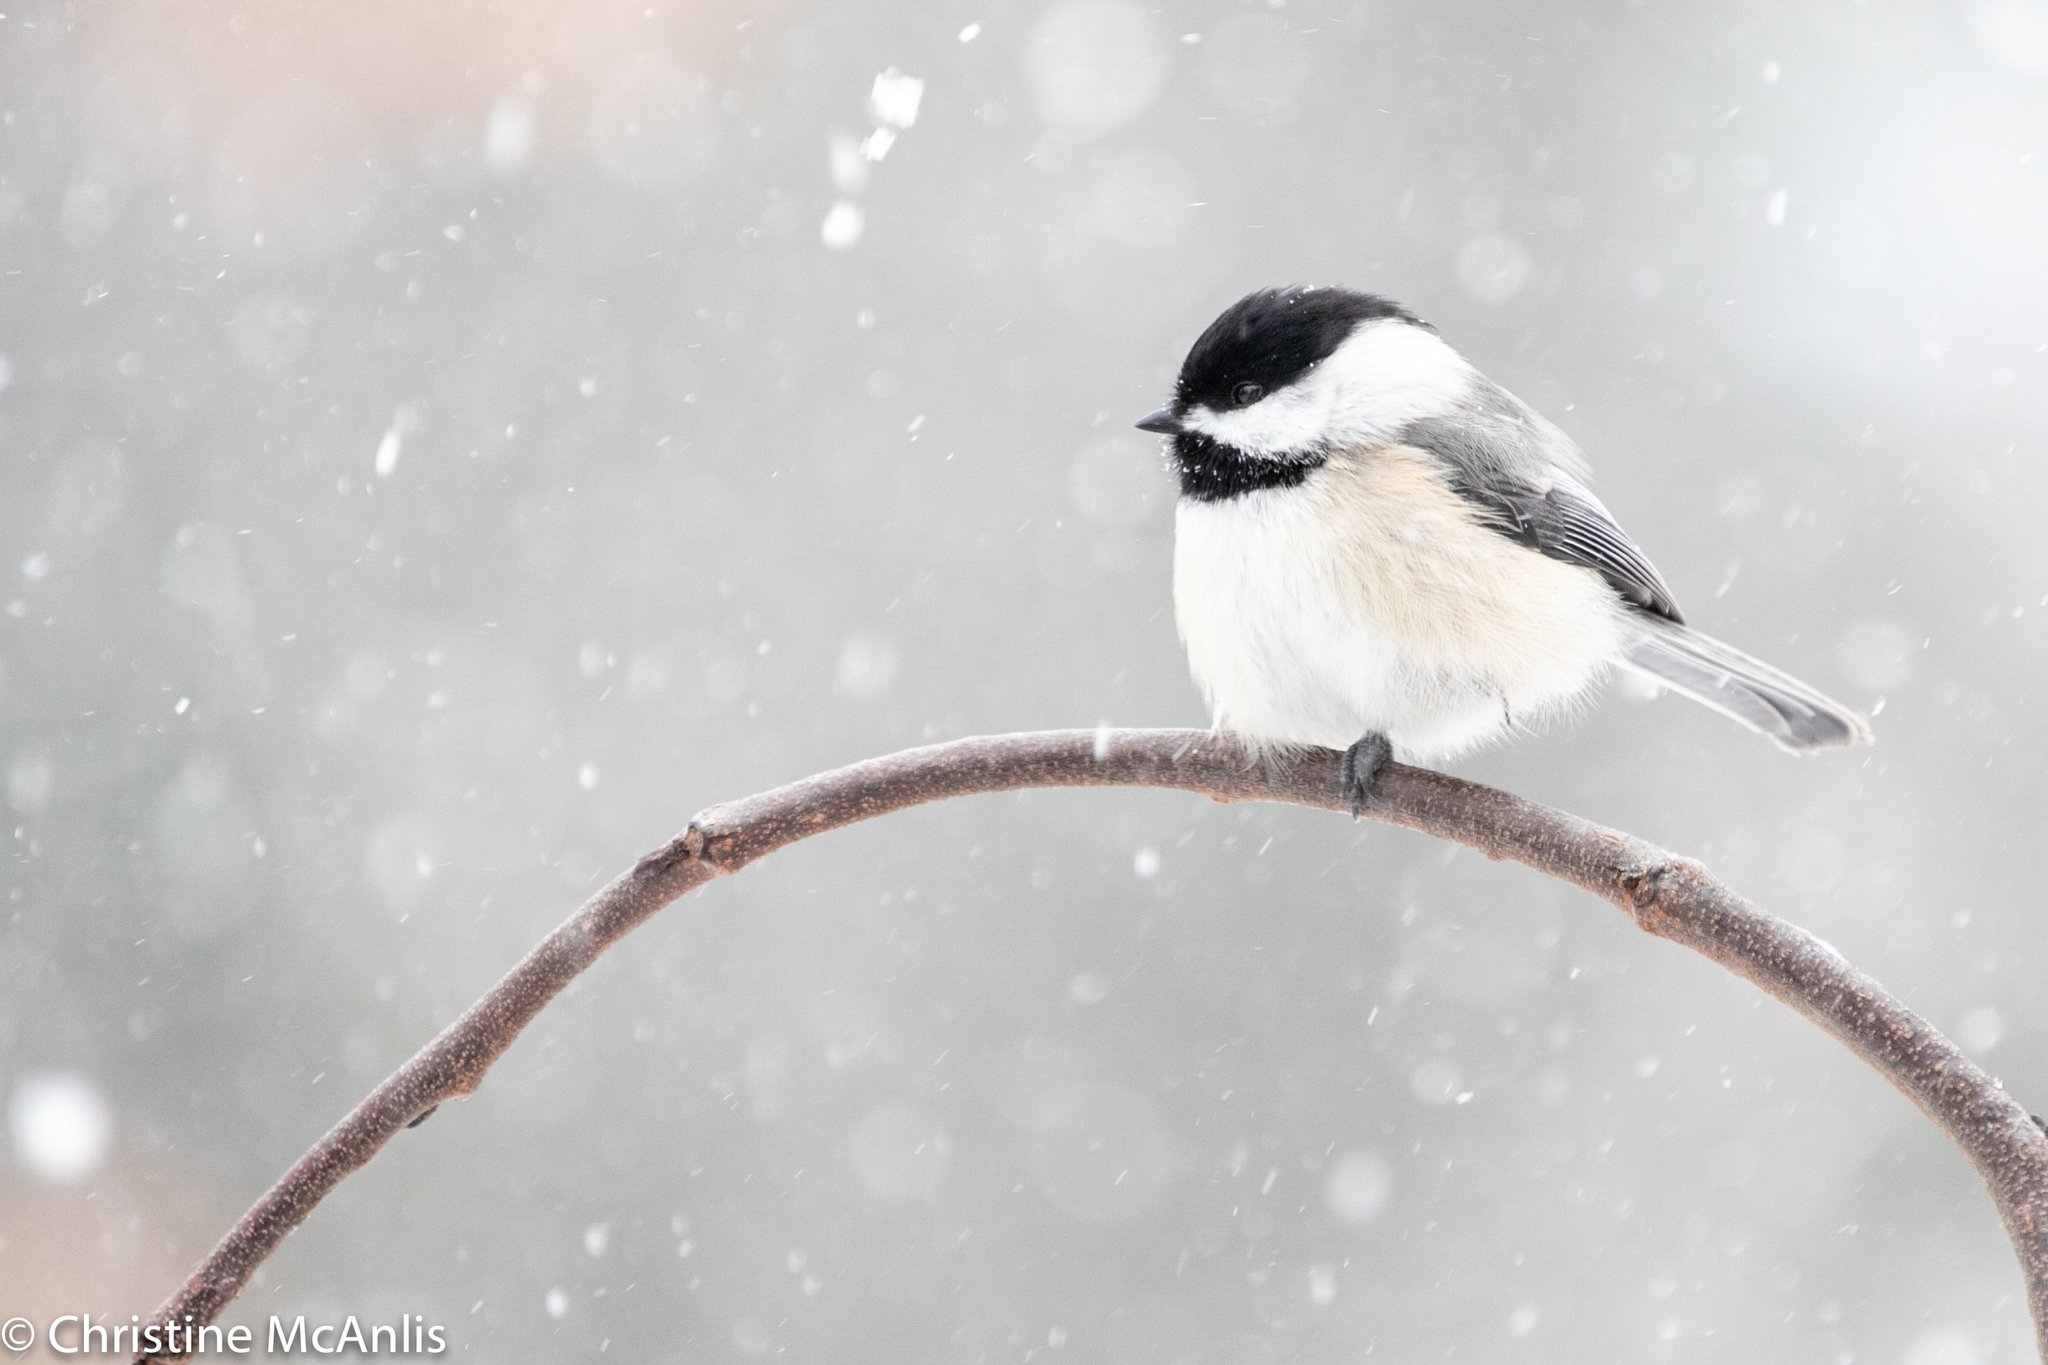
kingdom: Animalia
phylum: Chordata
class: Aves
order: Passeriformes
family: Paridae
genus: Poecile
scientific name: Poecile atricapillus
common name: Black-capped chickadee
